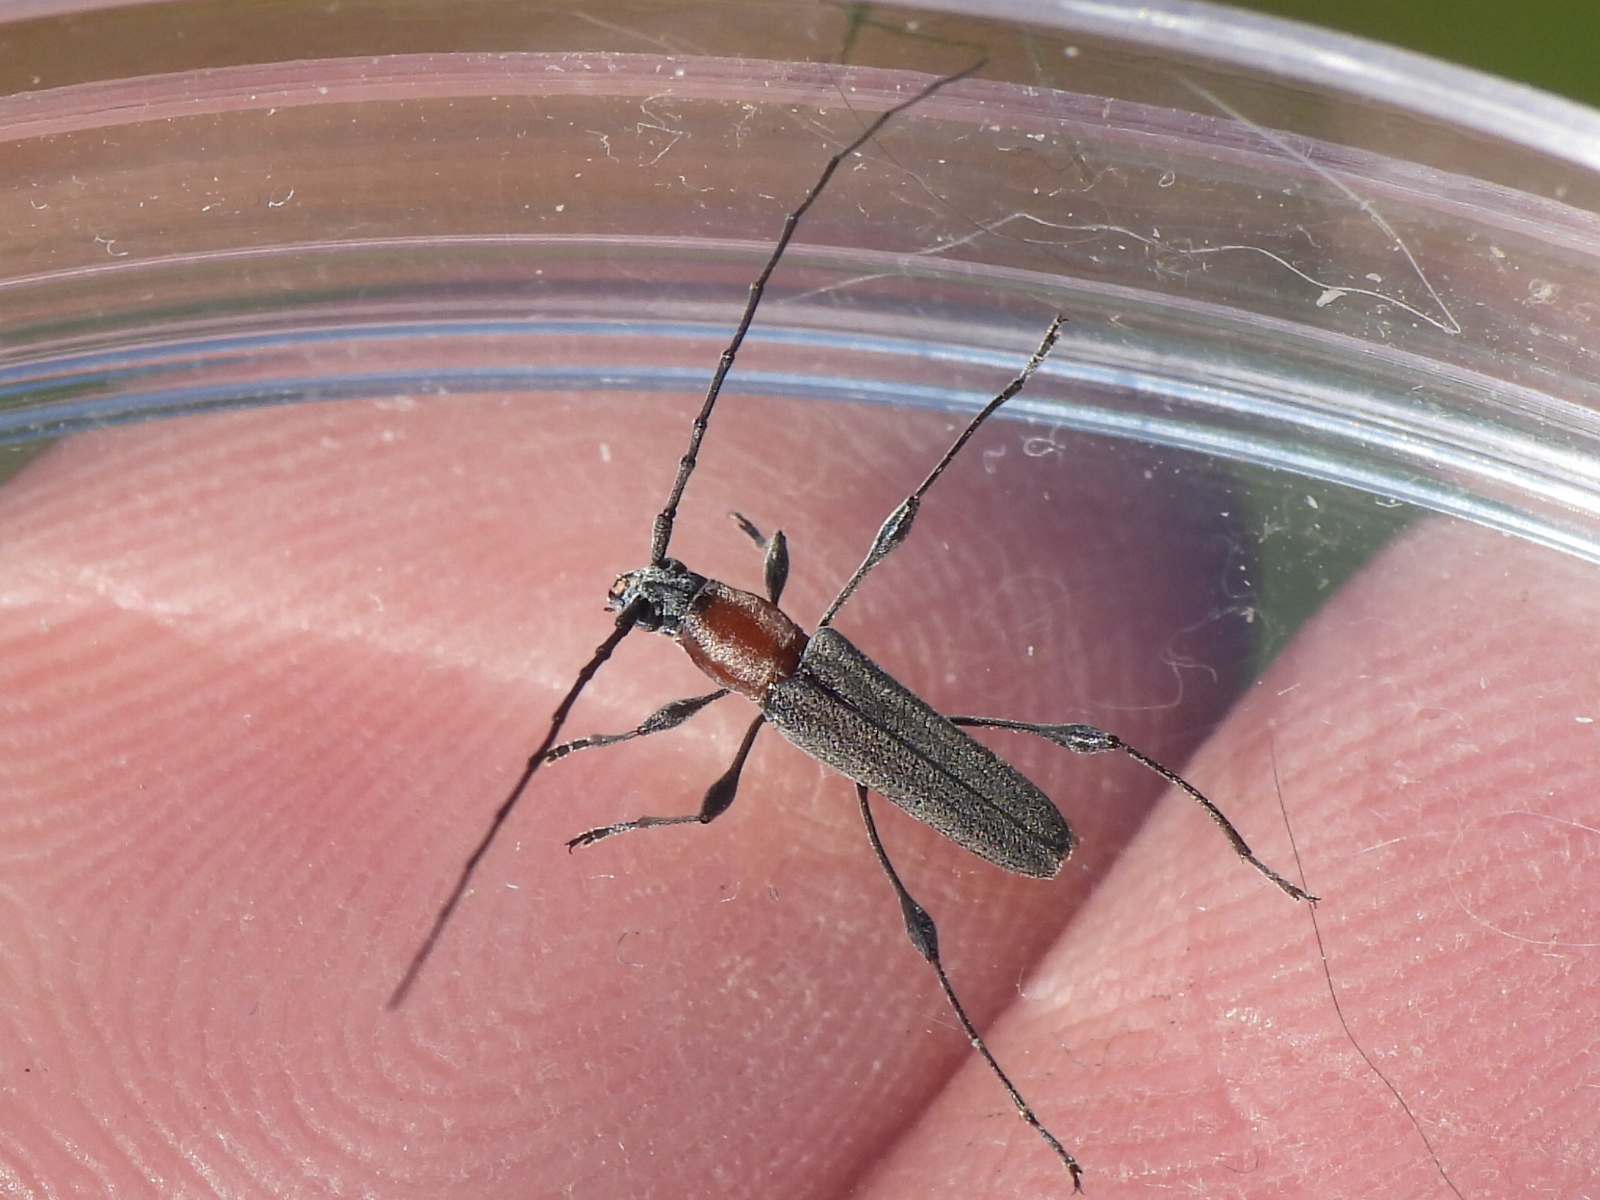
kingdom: Animalia
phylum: Arthropoda
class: Insecta
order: Coleoptera
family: Cerambycidae
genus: Rhopalophora
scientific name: Rhopalophora longipes
